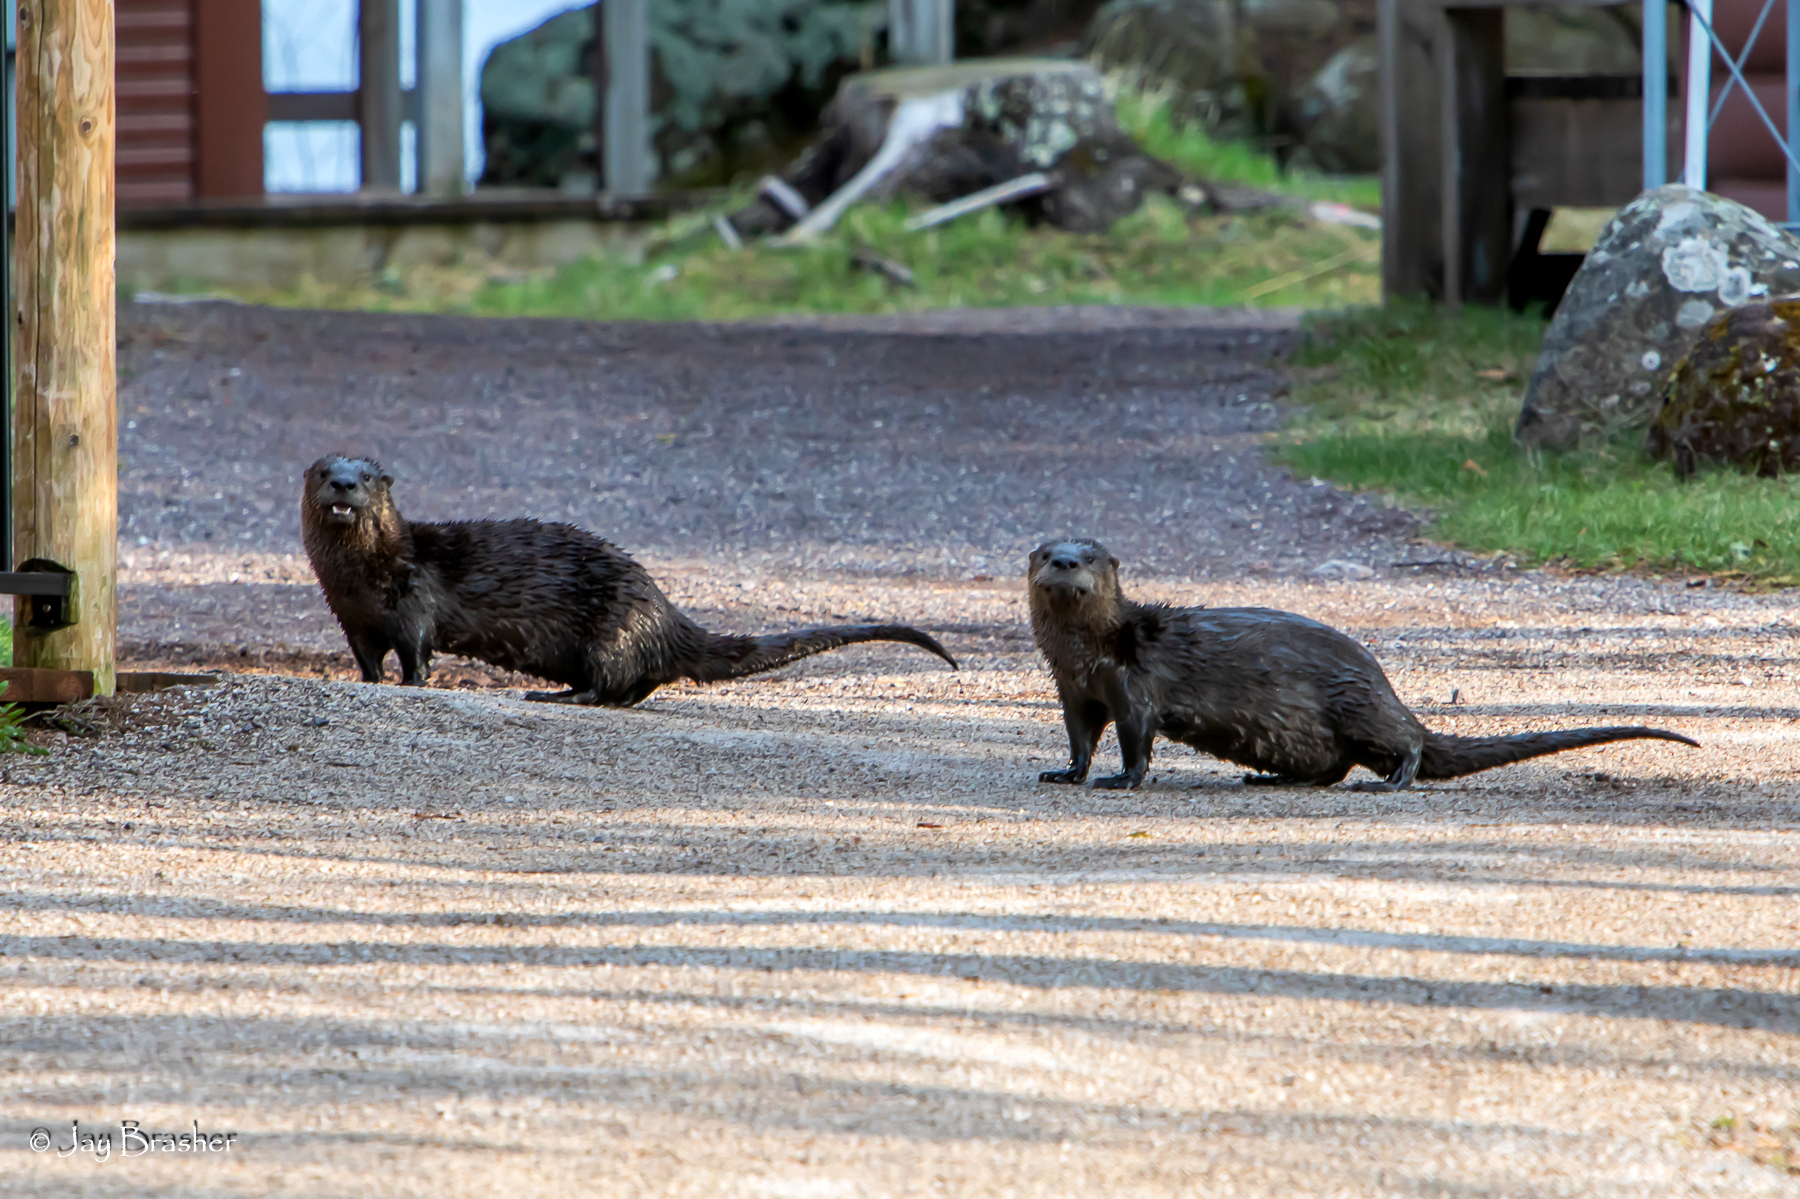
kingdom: Animalia
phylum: Chordata
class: Mammalia
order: Carnivora
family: Mustelidae
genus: Lontra
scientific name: Lontra canadensis
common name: North american river otter
